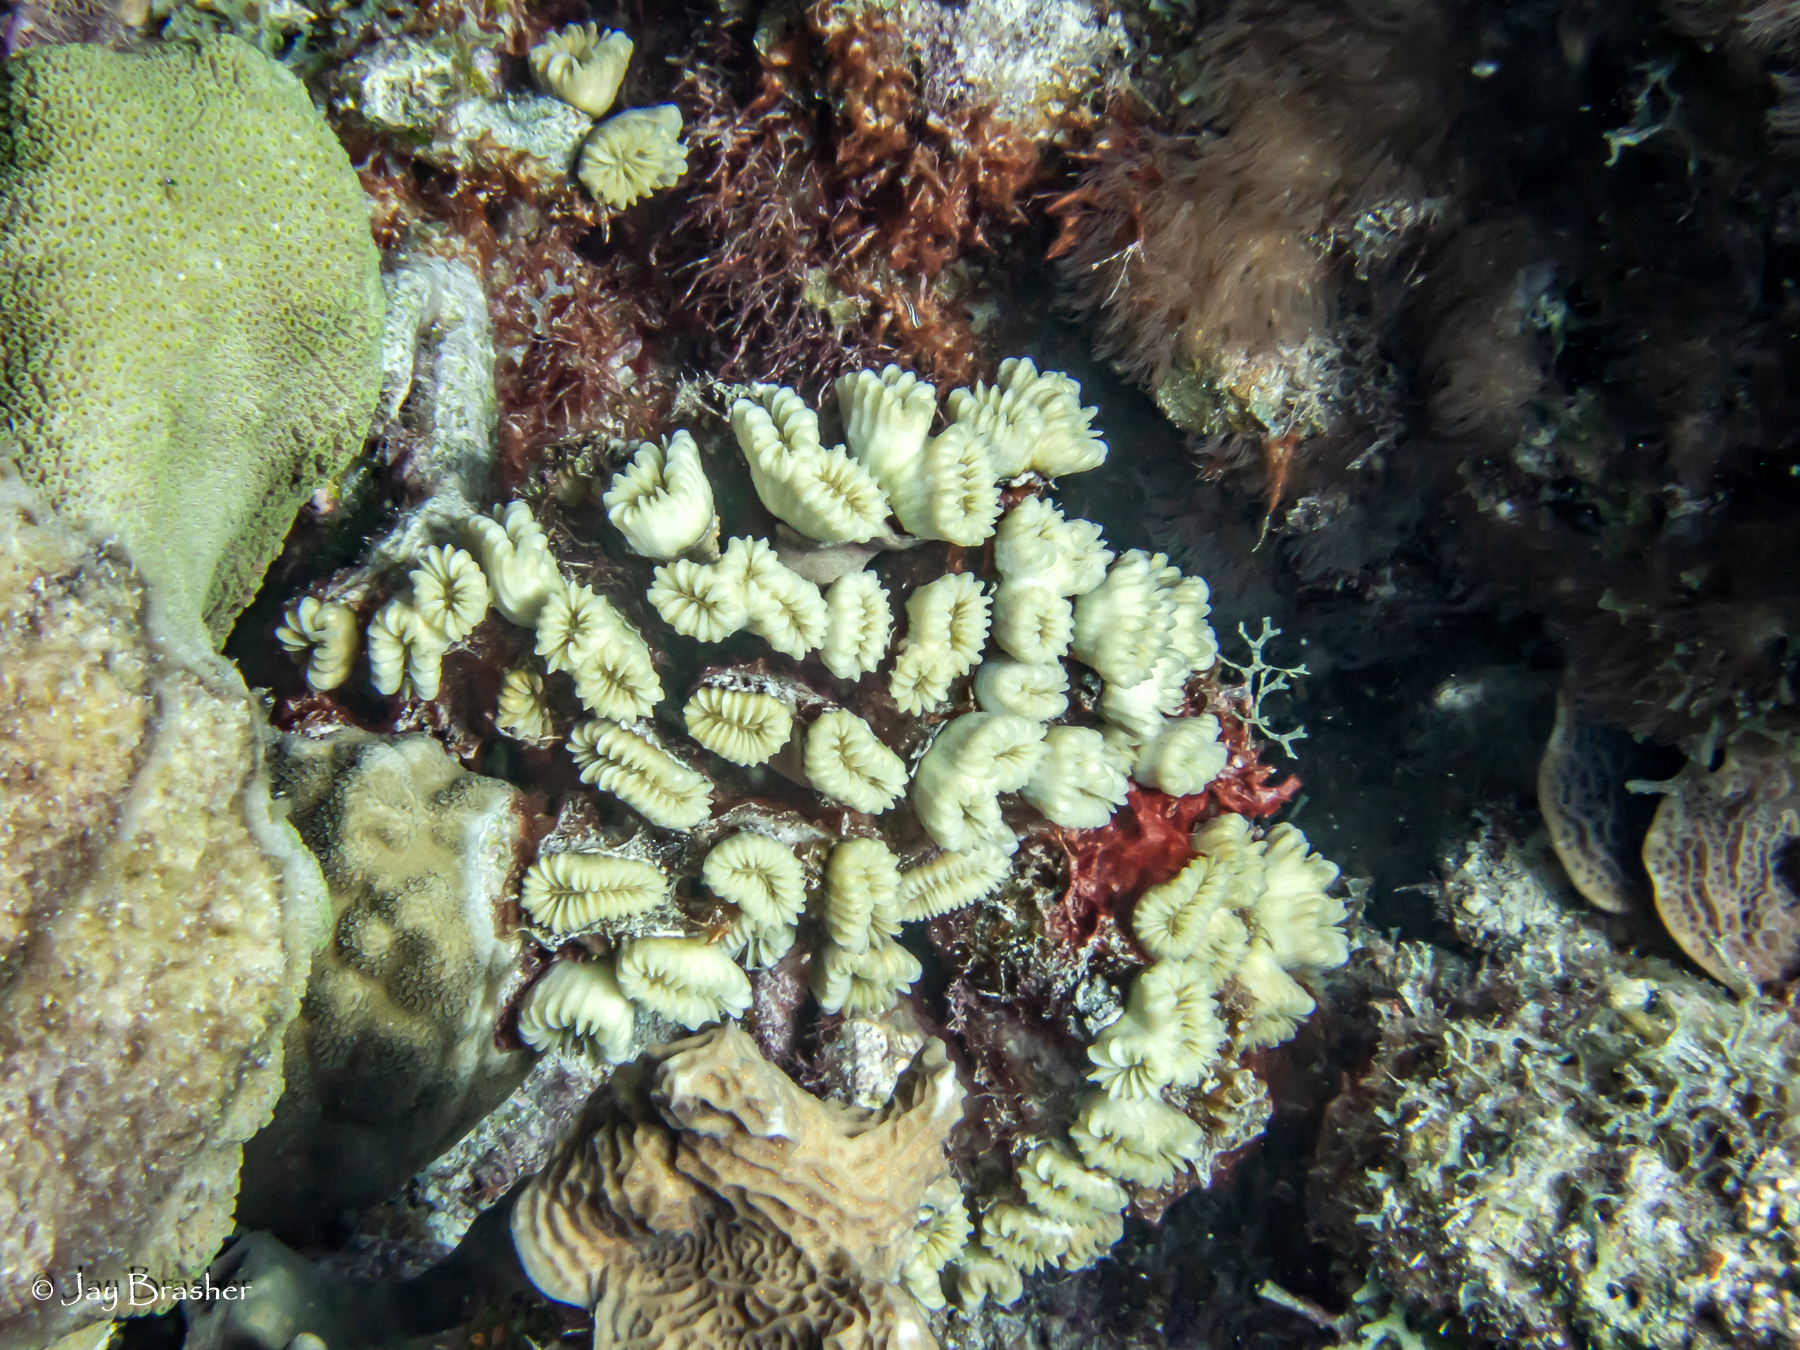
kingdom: Animalia
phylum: Cnidaria
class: Anthozoa
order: Scleractinia
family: Meandrinidae
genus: Eusmilia
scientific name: Eusmilia fastigiata
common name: Smooth flower coral
